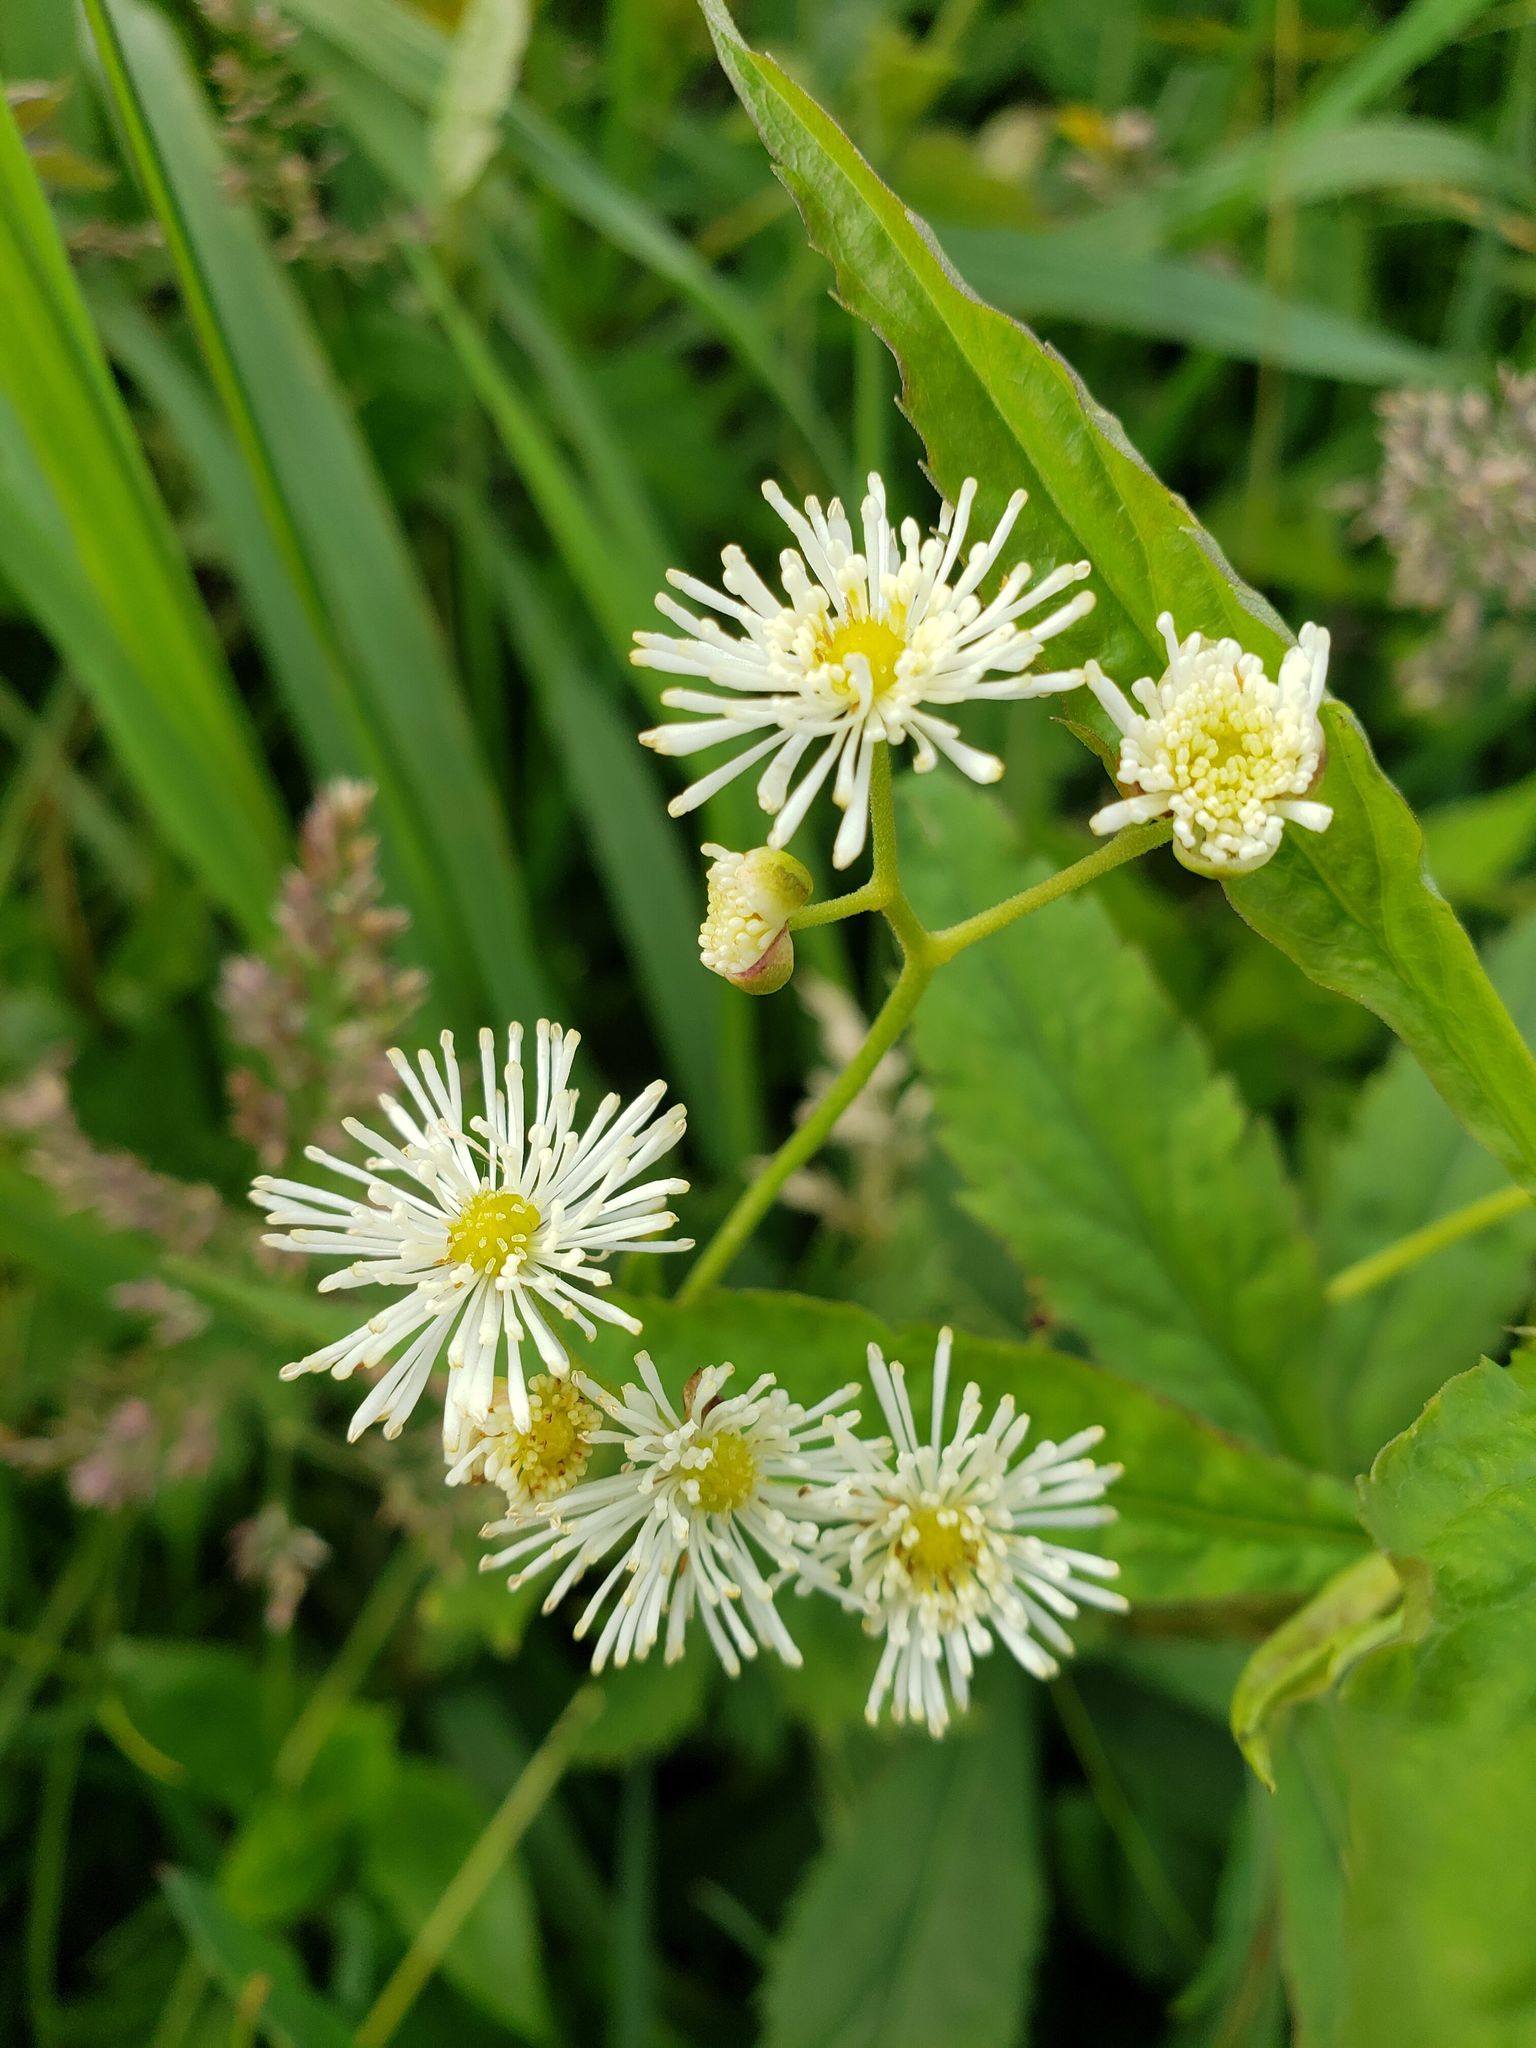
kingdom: Plantae
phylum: Tracheophyta
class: Magnoliopsida
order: Ranunculales
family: Ranunculaceae
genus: Trautvetteria
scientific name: Trautvetteria carolinensis
